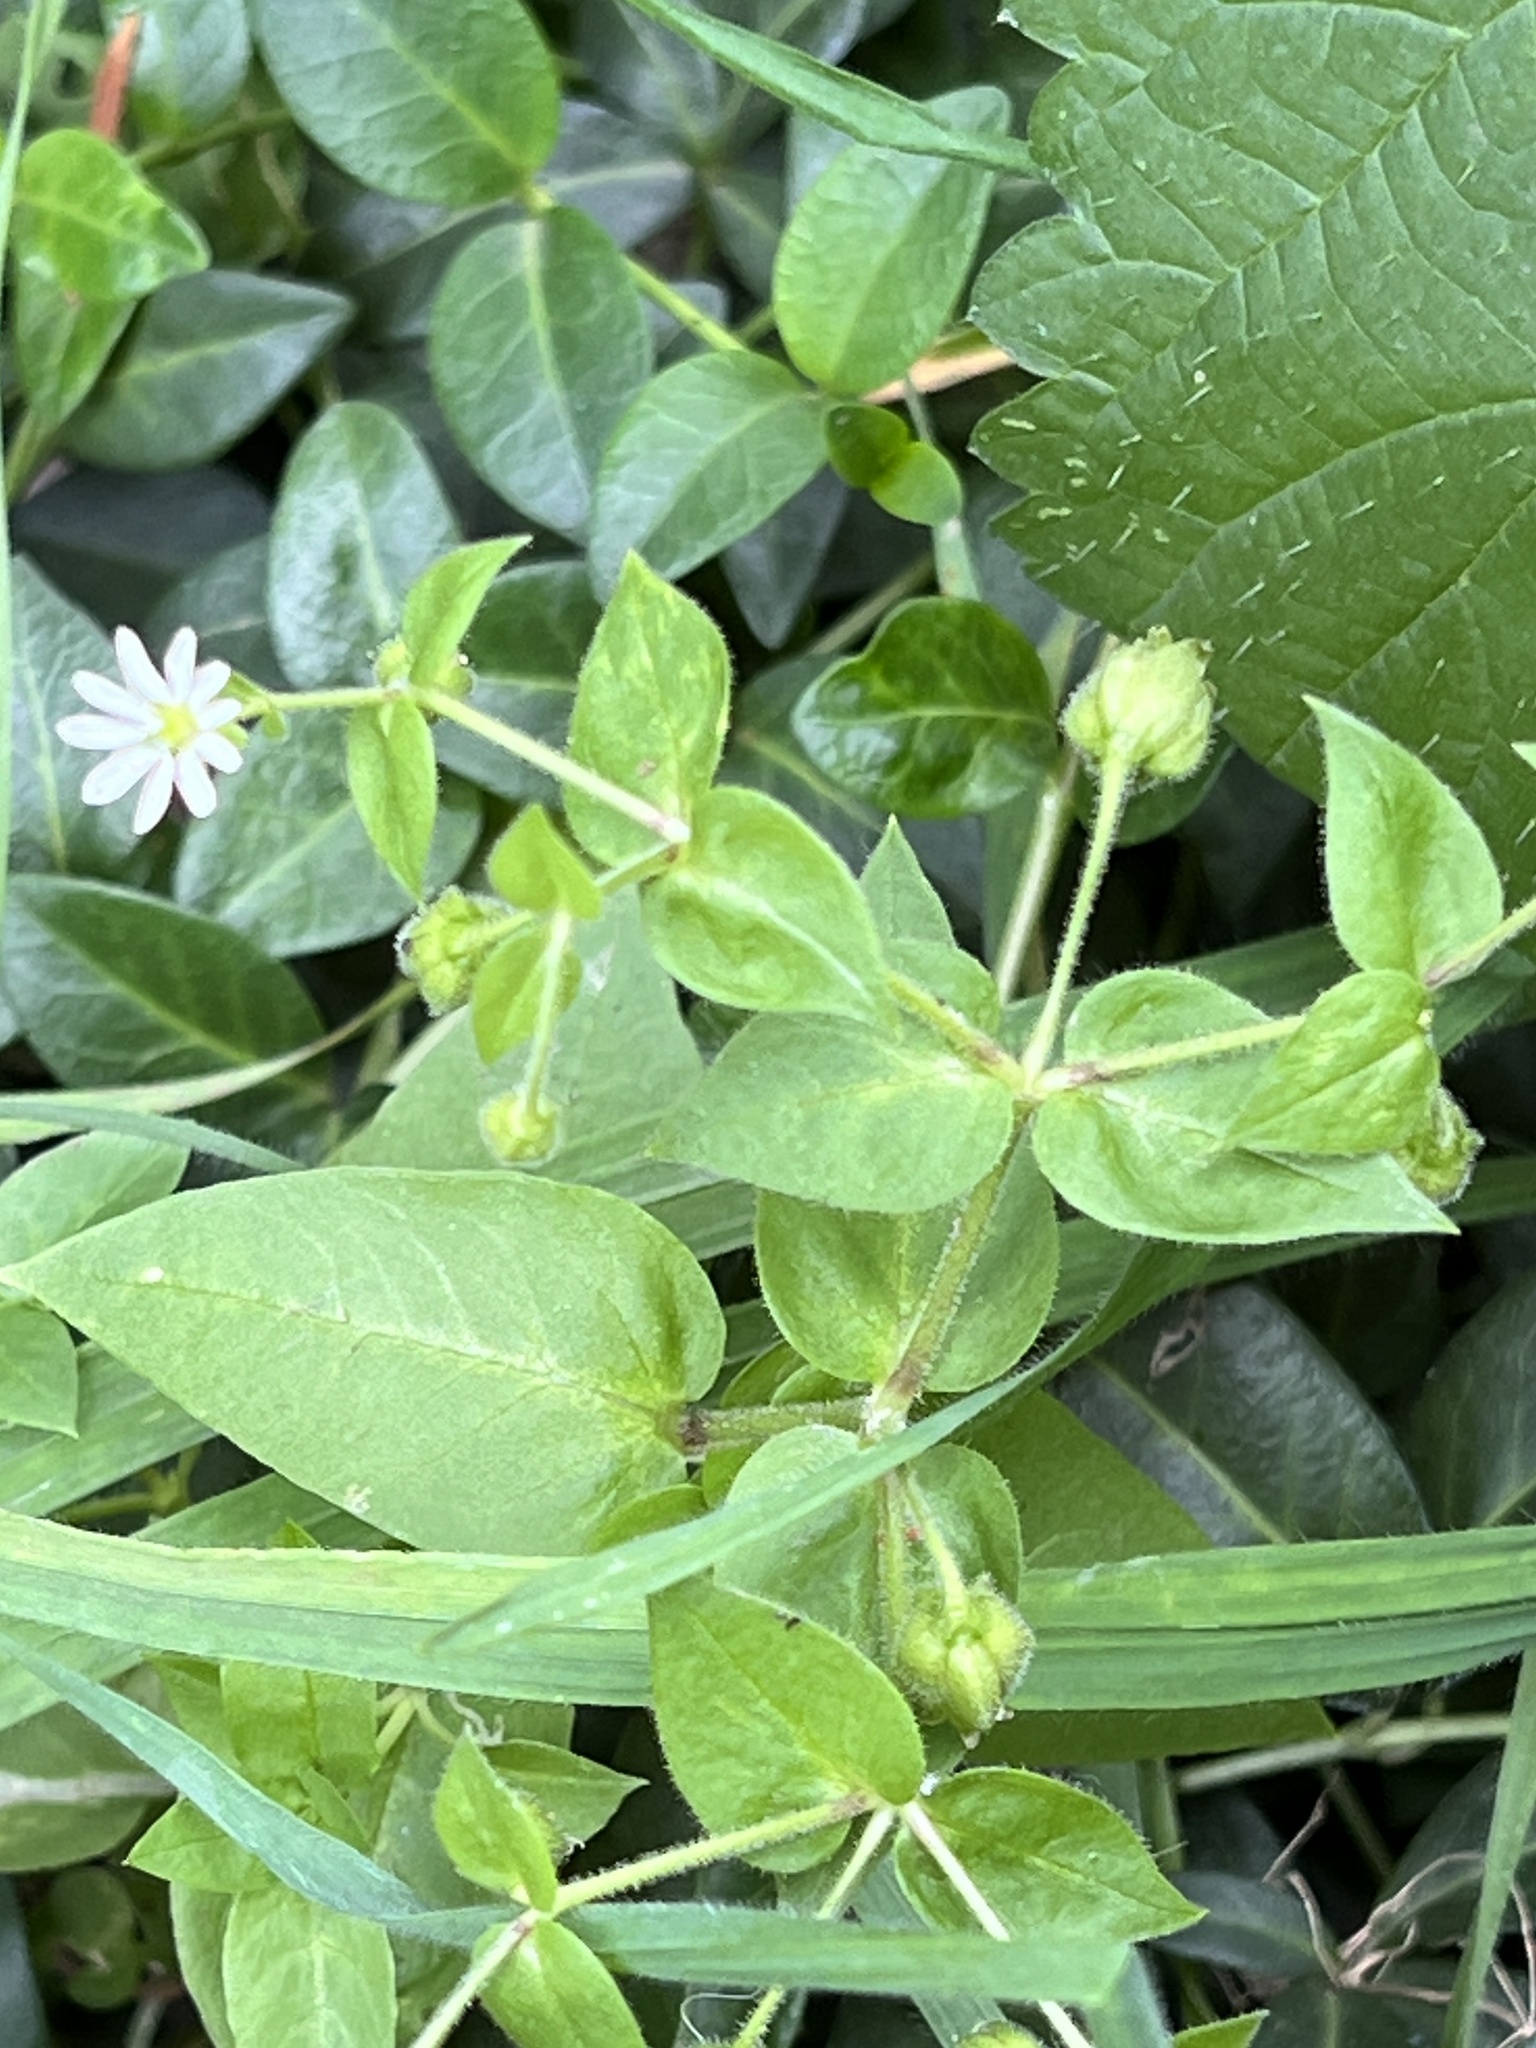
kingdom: Plantae
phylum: Tracheophyta
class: Magnoliopsida
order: Caryophyllales
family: Caryophyllaceae
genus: Stellaria
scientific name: Stellaria aquatica
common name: Water chickweed
